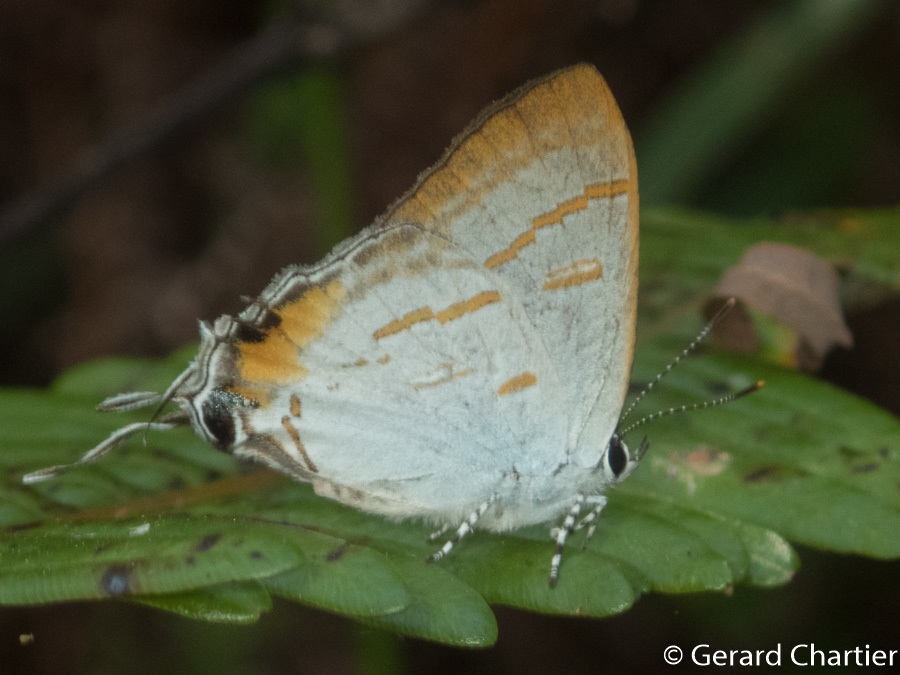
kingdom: Animalia
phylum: Arthropoda
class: Insecta
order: Lepidoptera
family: Lycaenidae
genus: Hypolycaena
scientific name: Hypolycaena thecloides
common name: Dark tit
